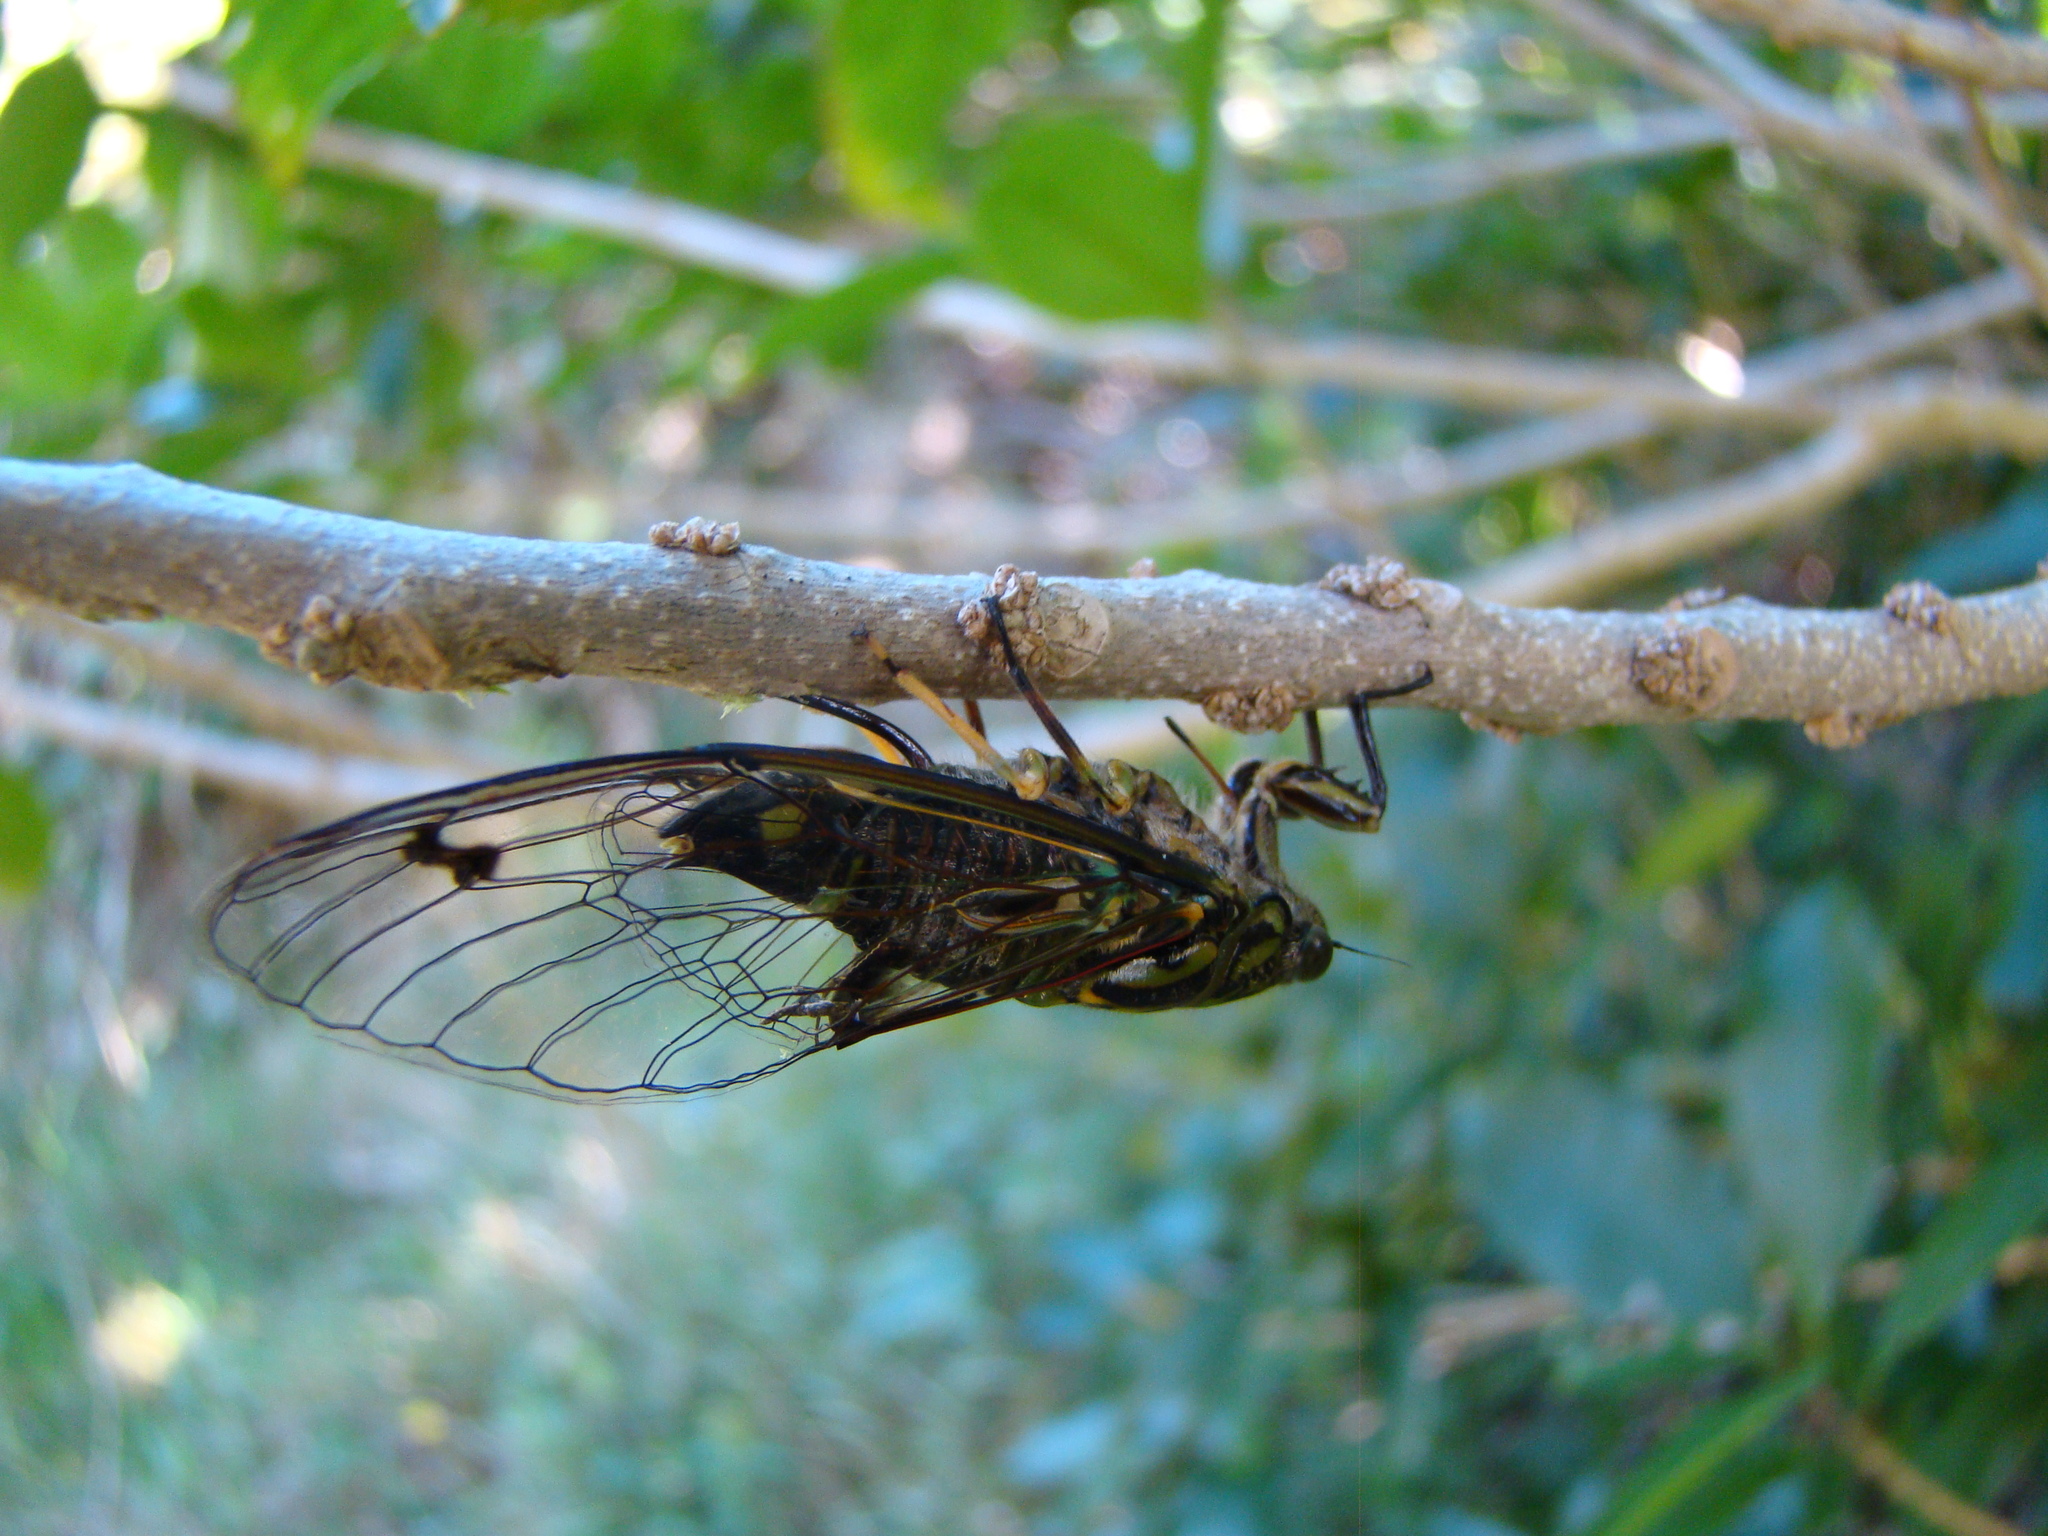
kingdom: Animalia
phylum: Arthropoda
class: Insecta
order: Hemiptera
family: Cicadidae
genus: Amphipsalta
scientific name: Amphipsalta zelandica
